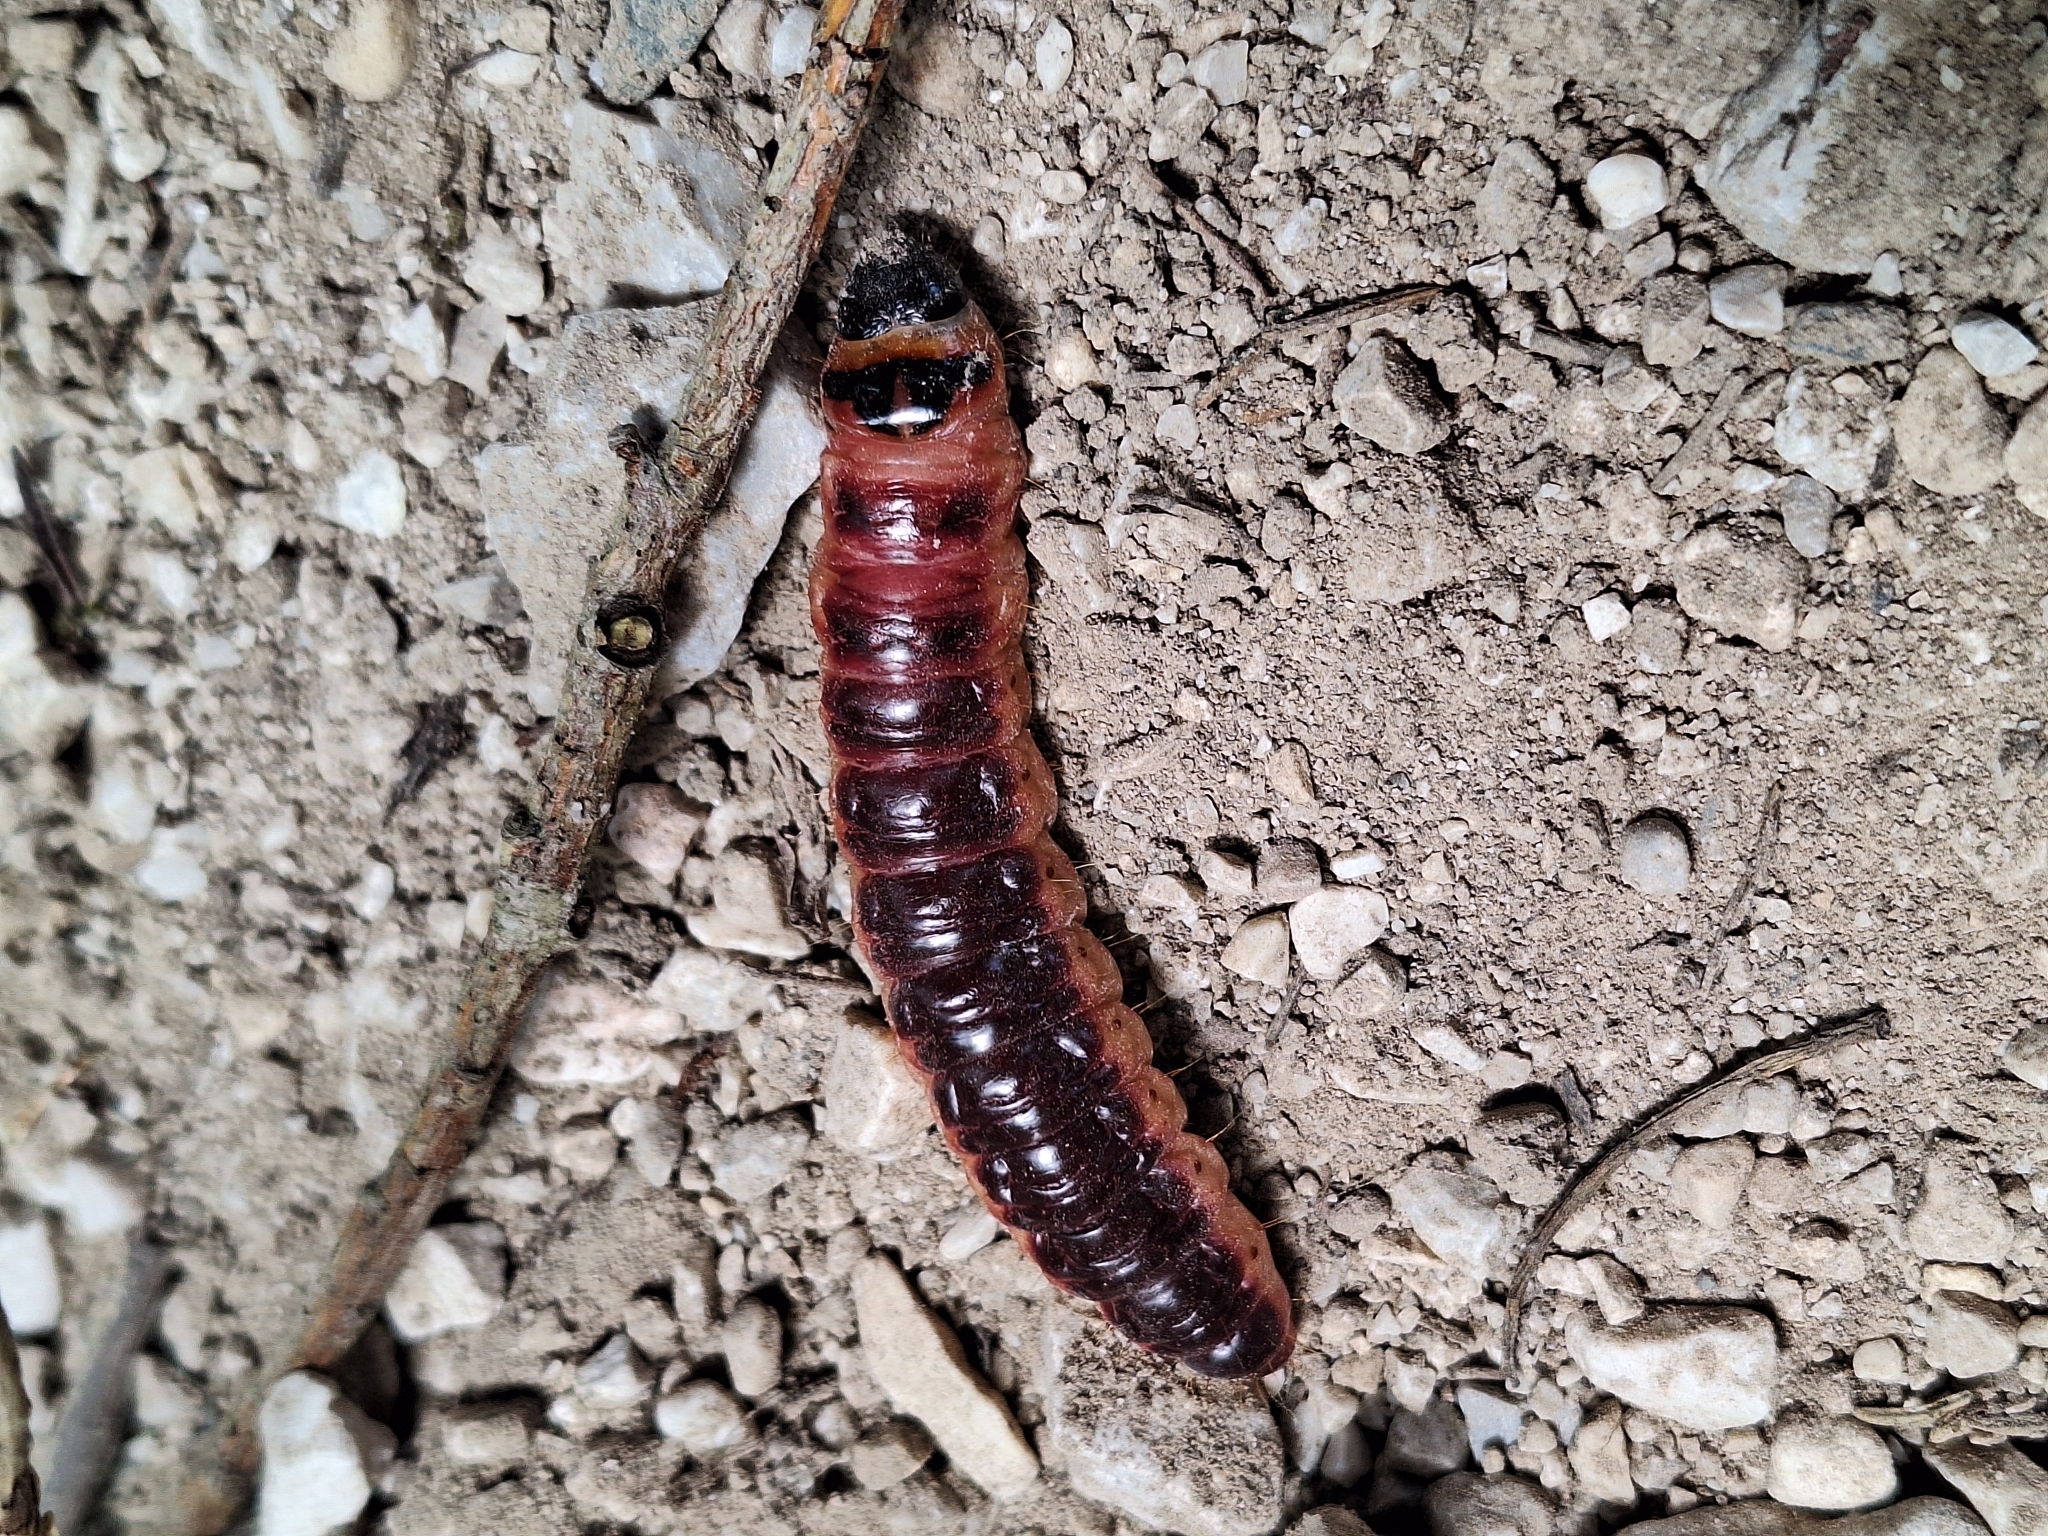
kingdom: Animalia
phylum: Arthropoda
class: Insecta
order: Lepidoptera
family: Cossidae
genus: Cossus
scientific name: Cossus cossus
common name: Goat moth
